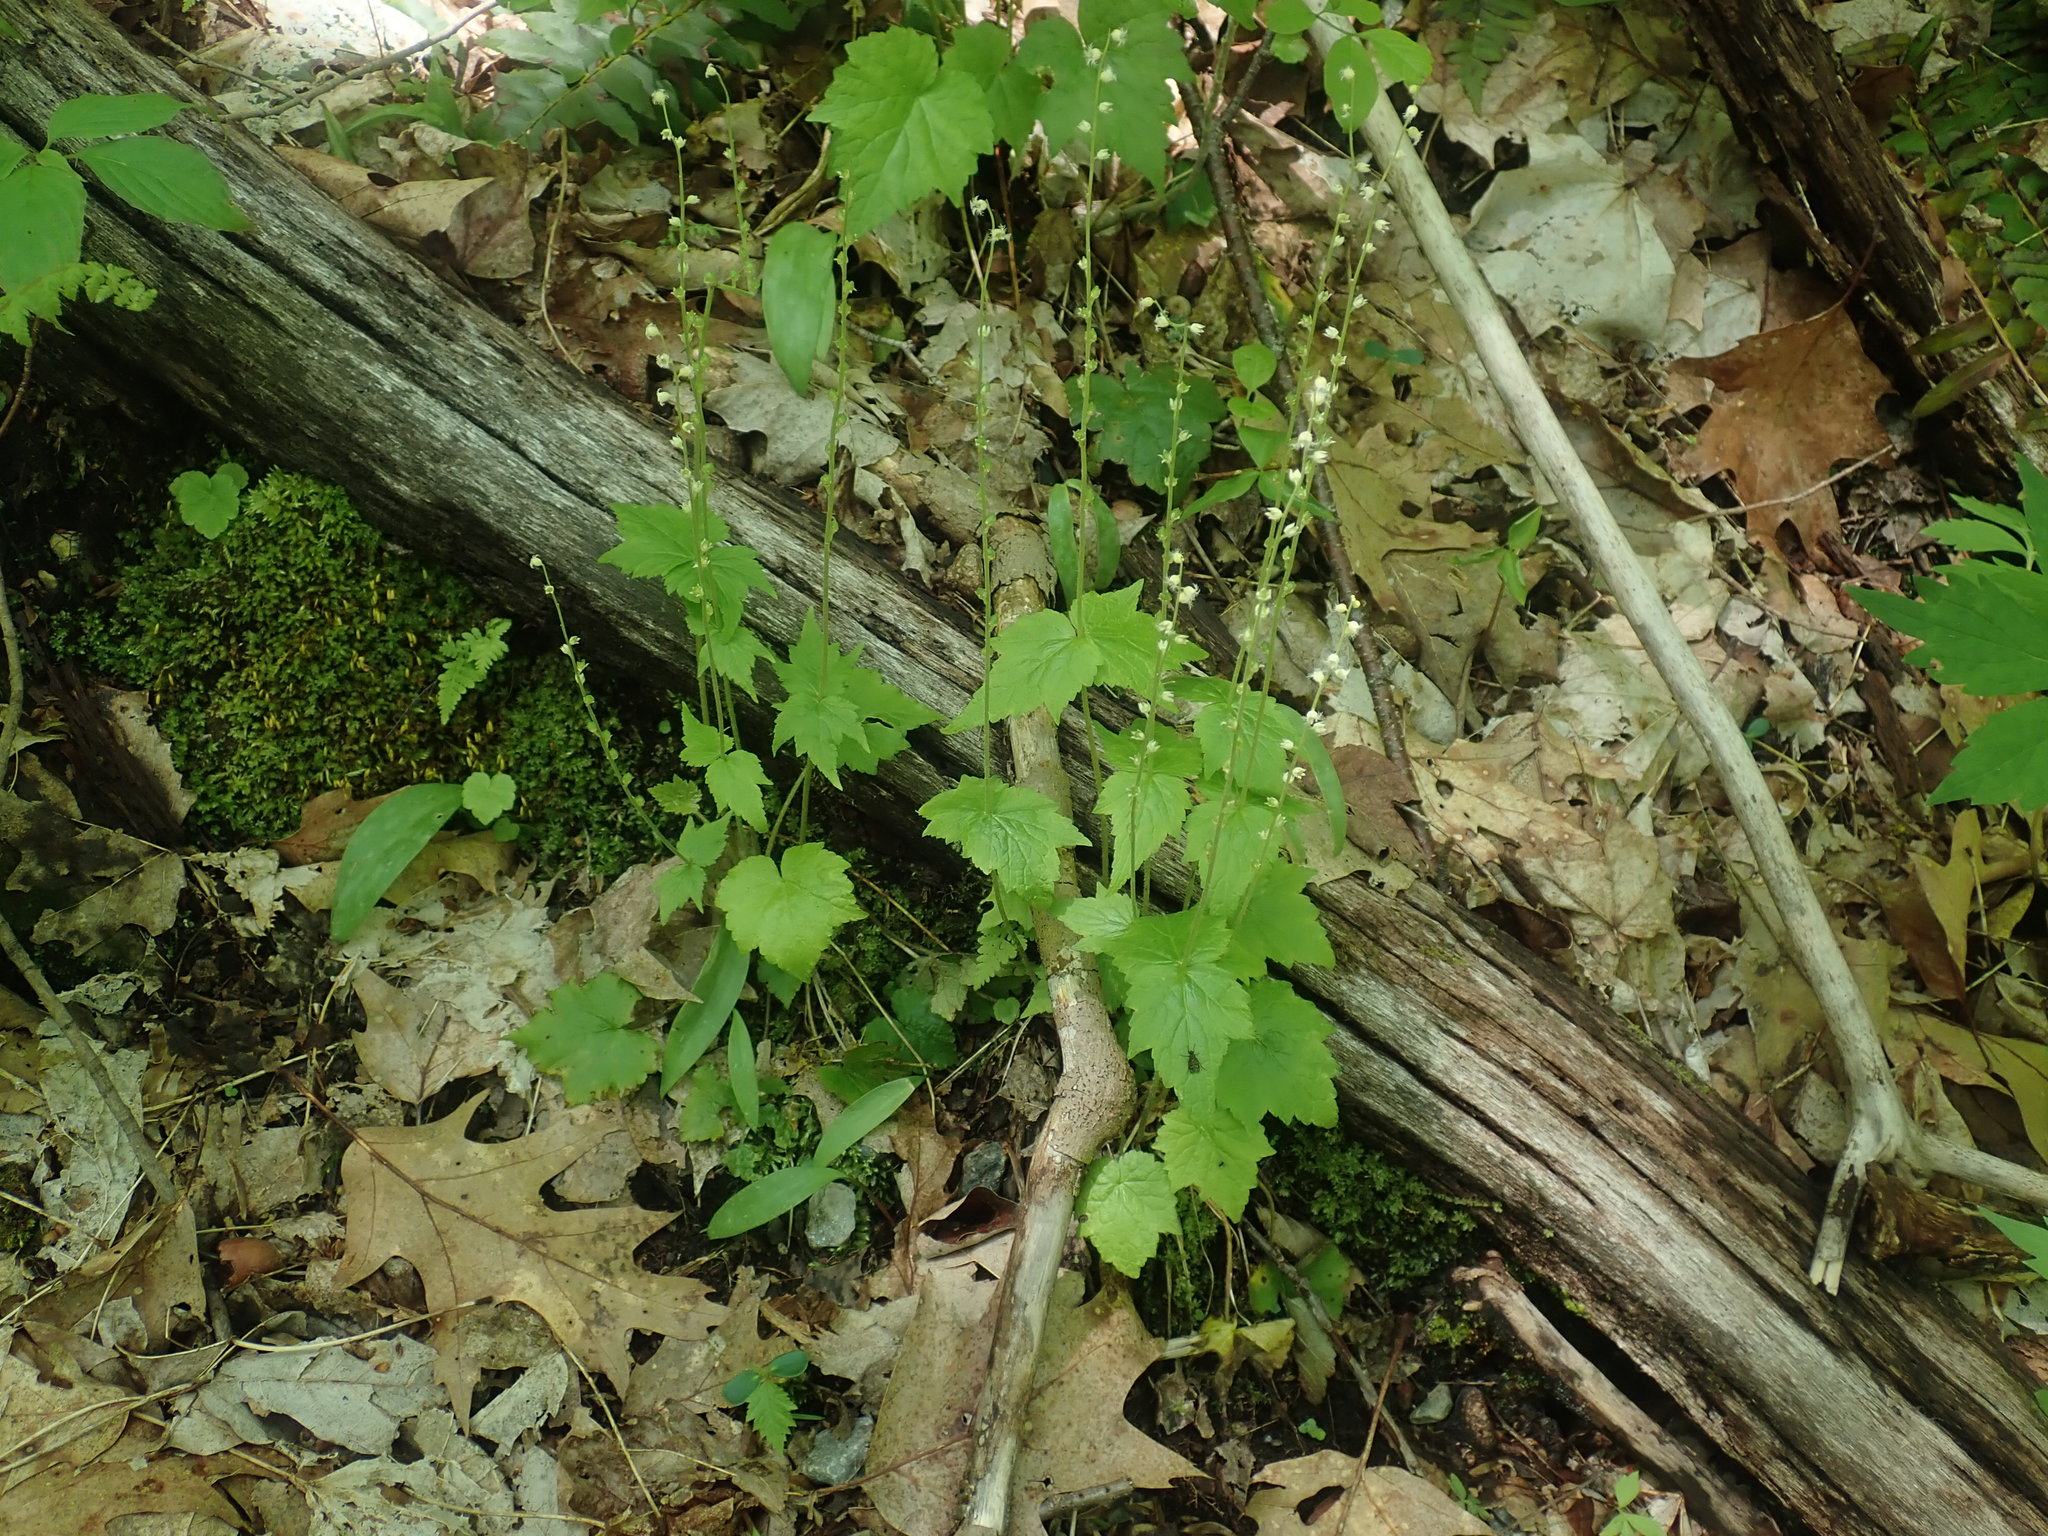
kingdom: Plantae
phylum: Tracheophyta
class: Magnoliopsida
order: Saxifragales
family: Saxifragaceae
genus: Mitella
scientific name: Mitella diphylla
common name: Coolwort
